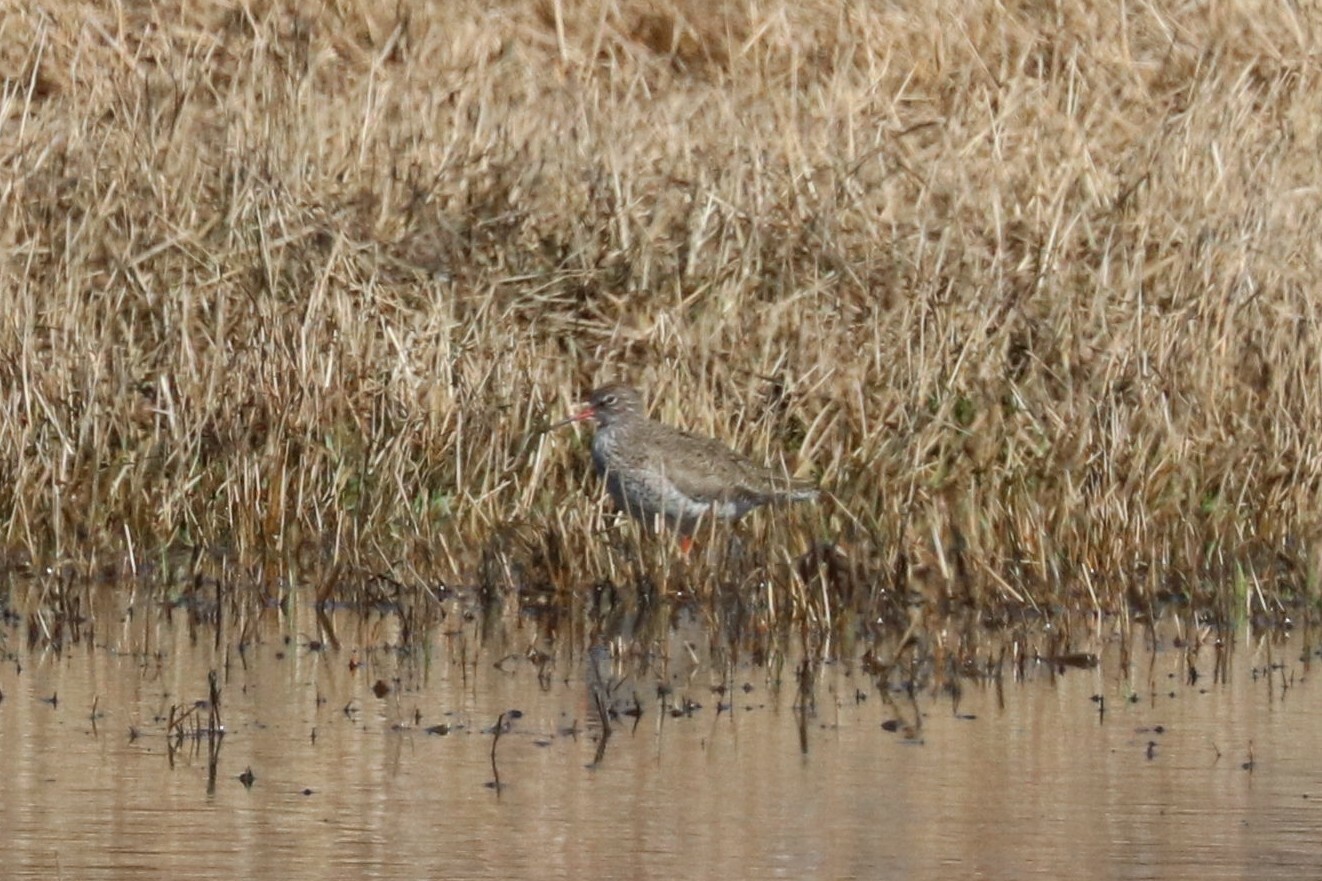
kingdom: Animalia
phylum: Chordata
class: Aves
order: Charadriiformes
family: Scolopacidae
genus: Tringa
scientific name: Tringa totanus
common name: Common redshank
